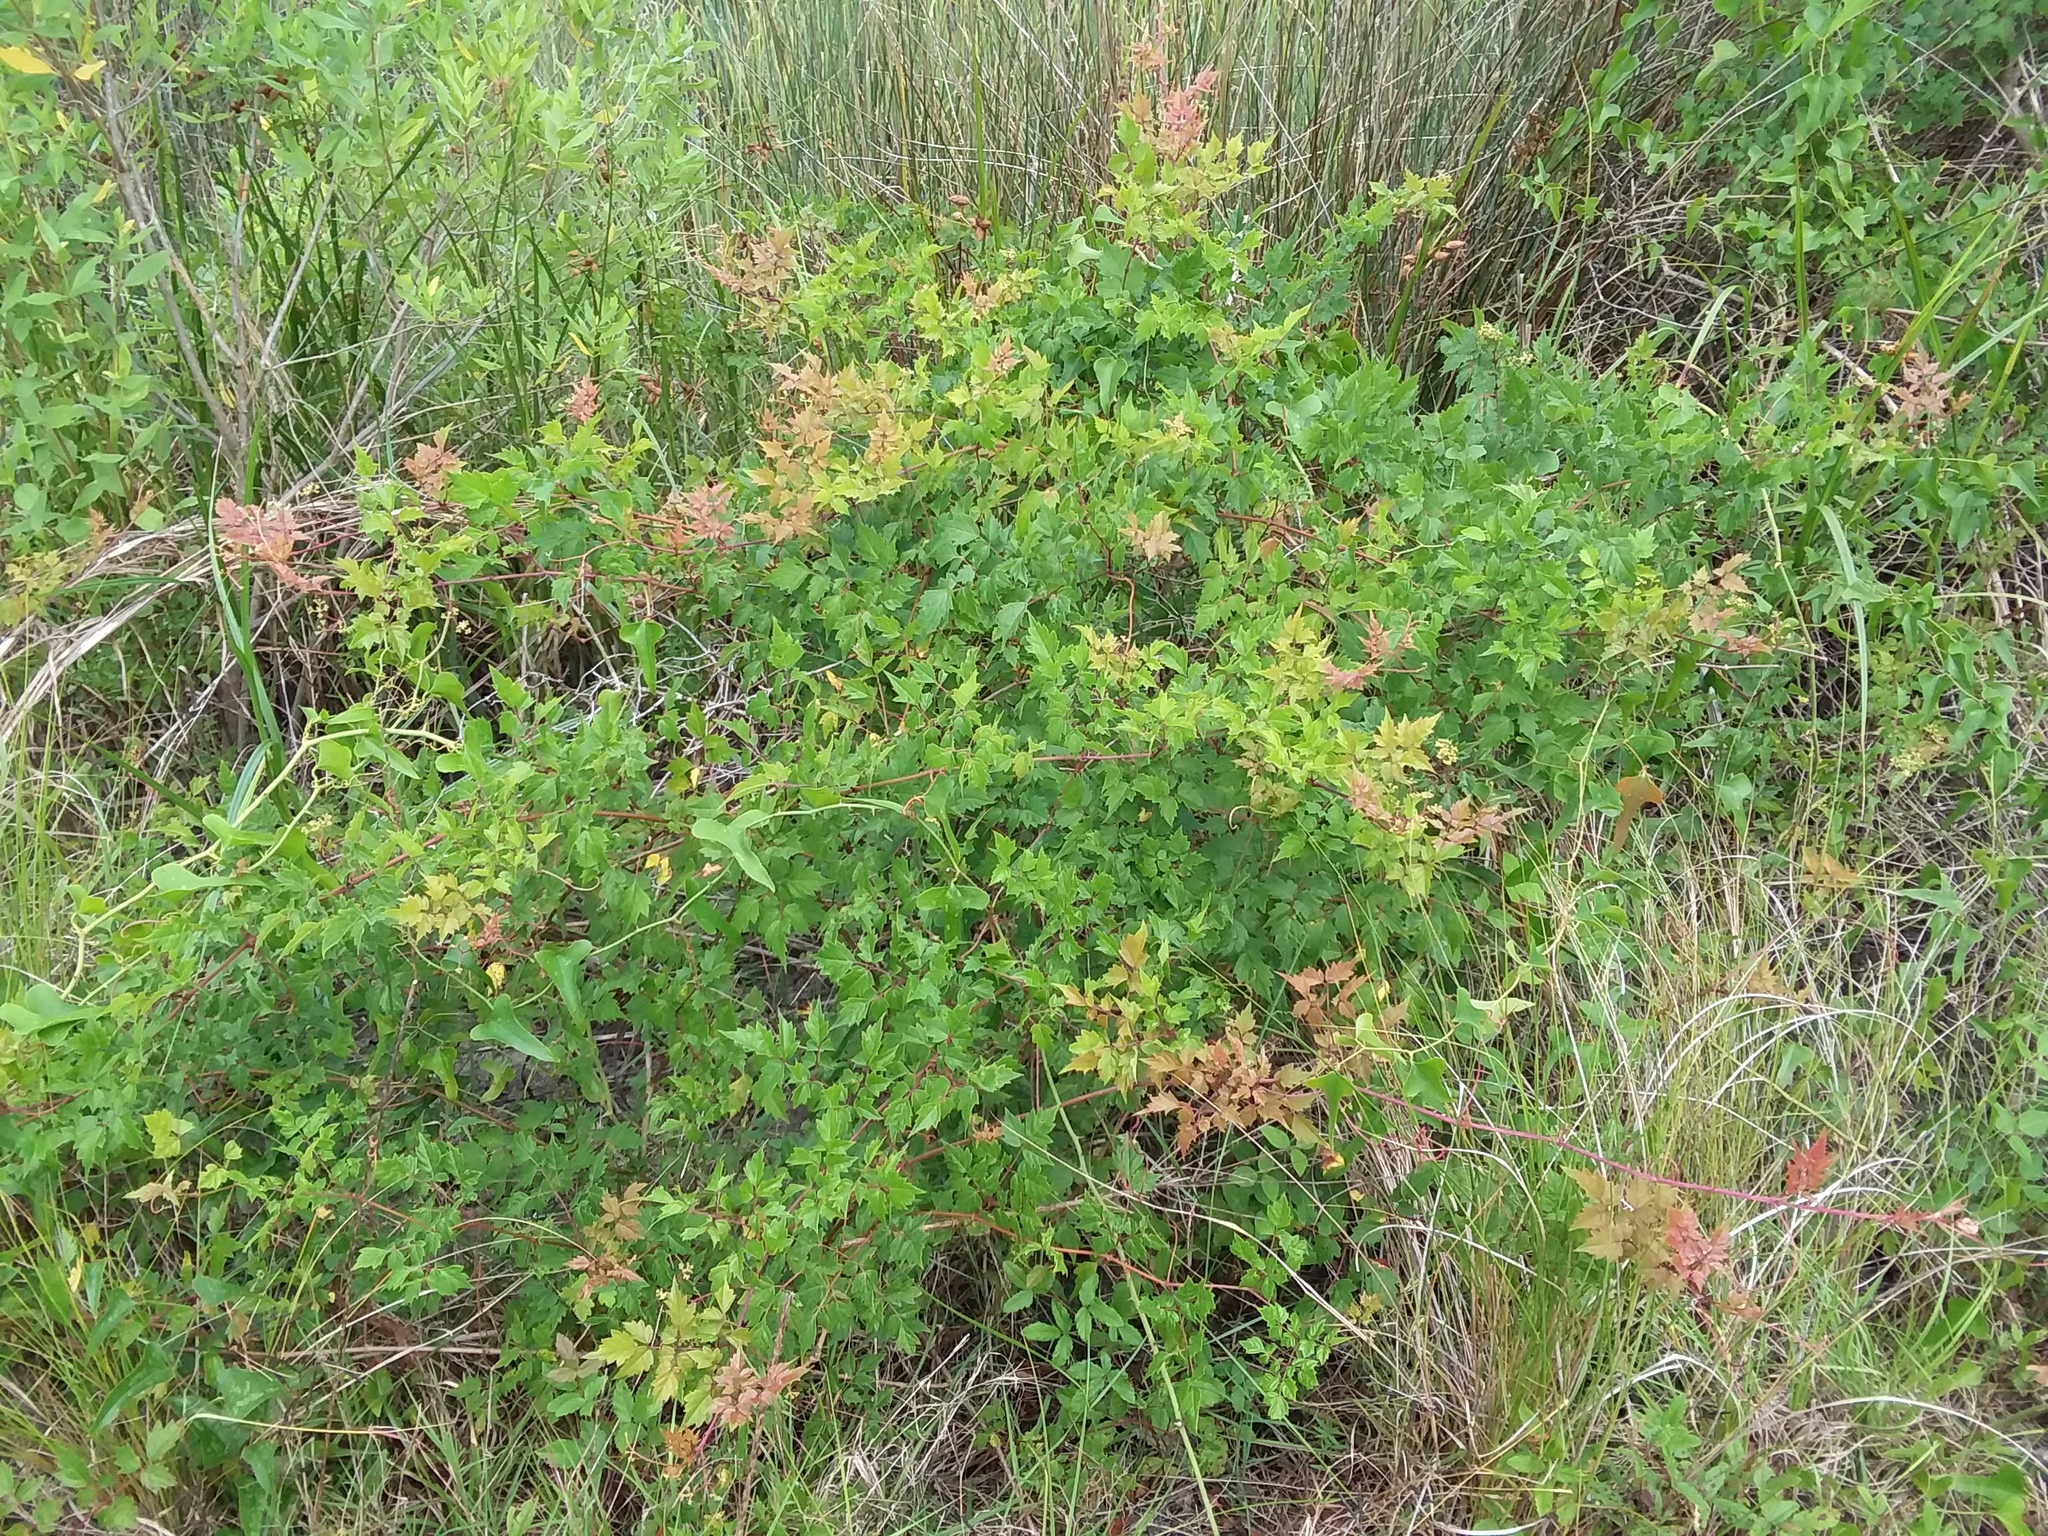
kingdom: Plantae
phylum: Tracheophyta
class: Magnoliopsida
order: Vitales
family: Vitaceae
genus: Nekemias
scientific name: Nekemias arborea
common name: Peppervine
